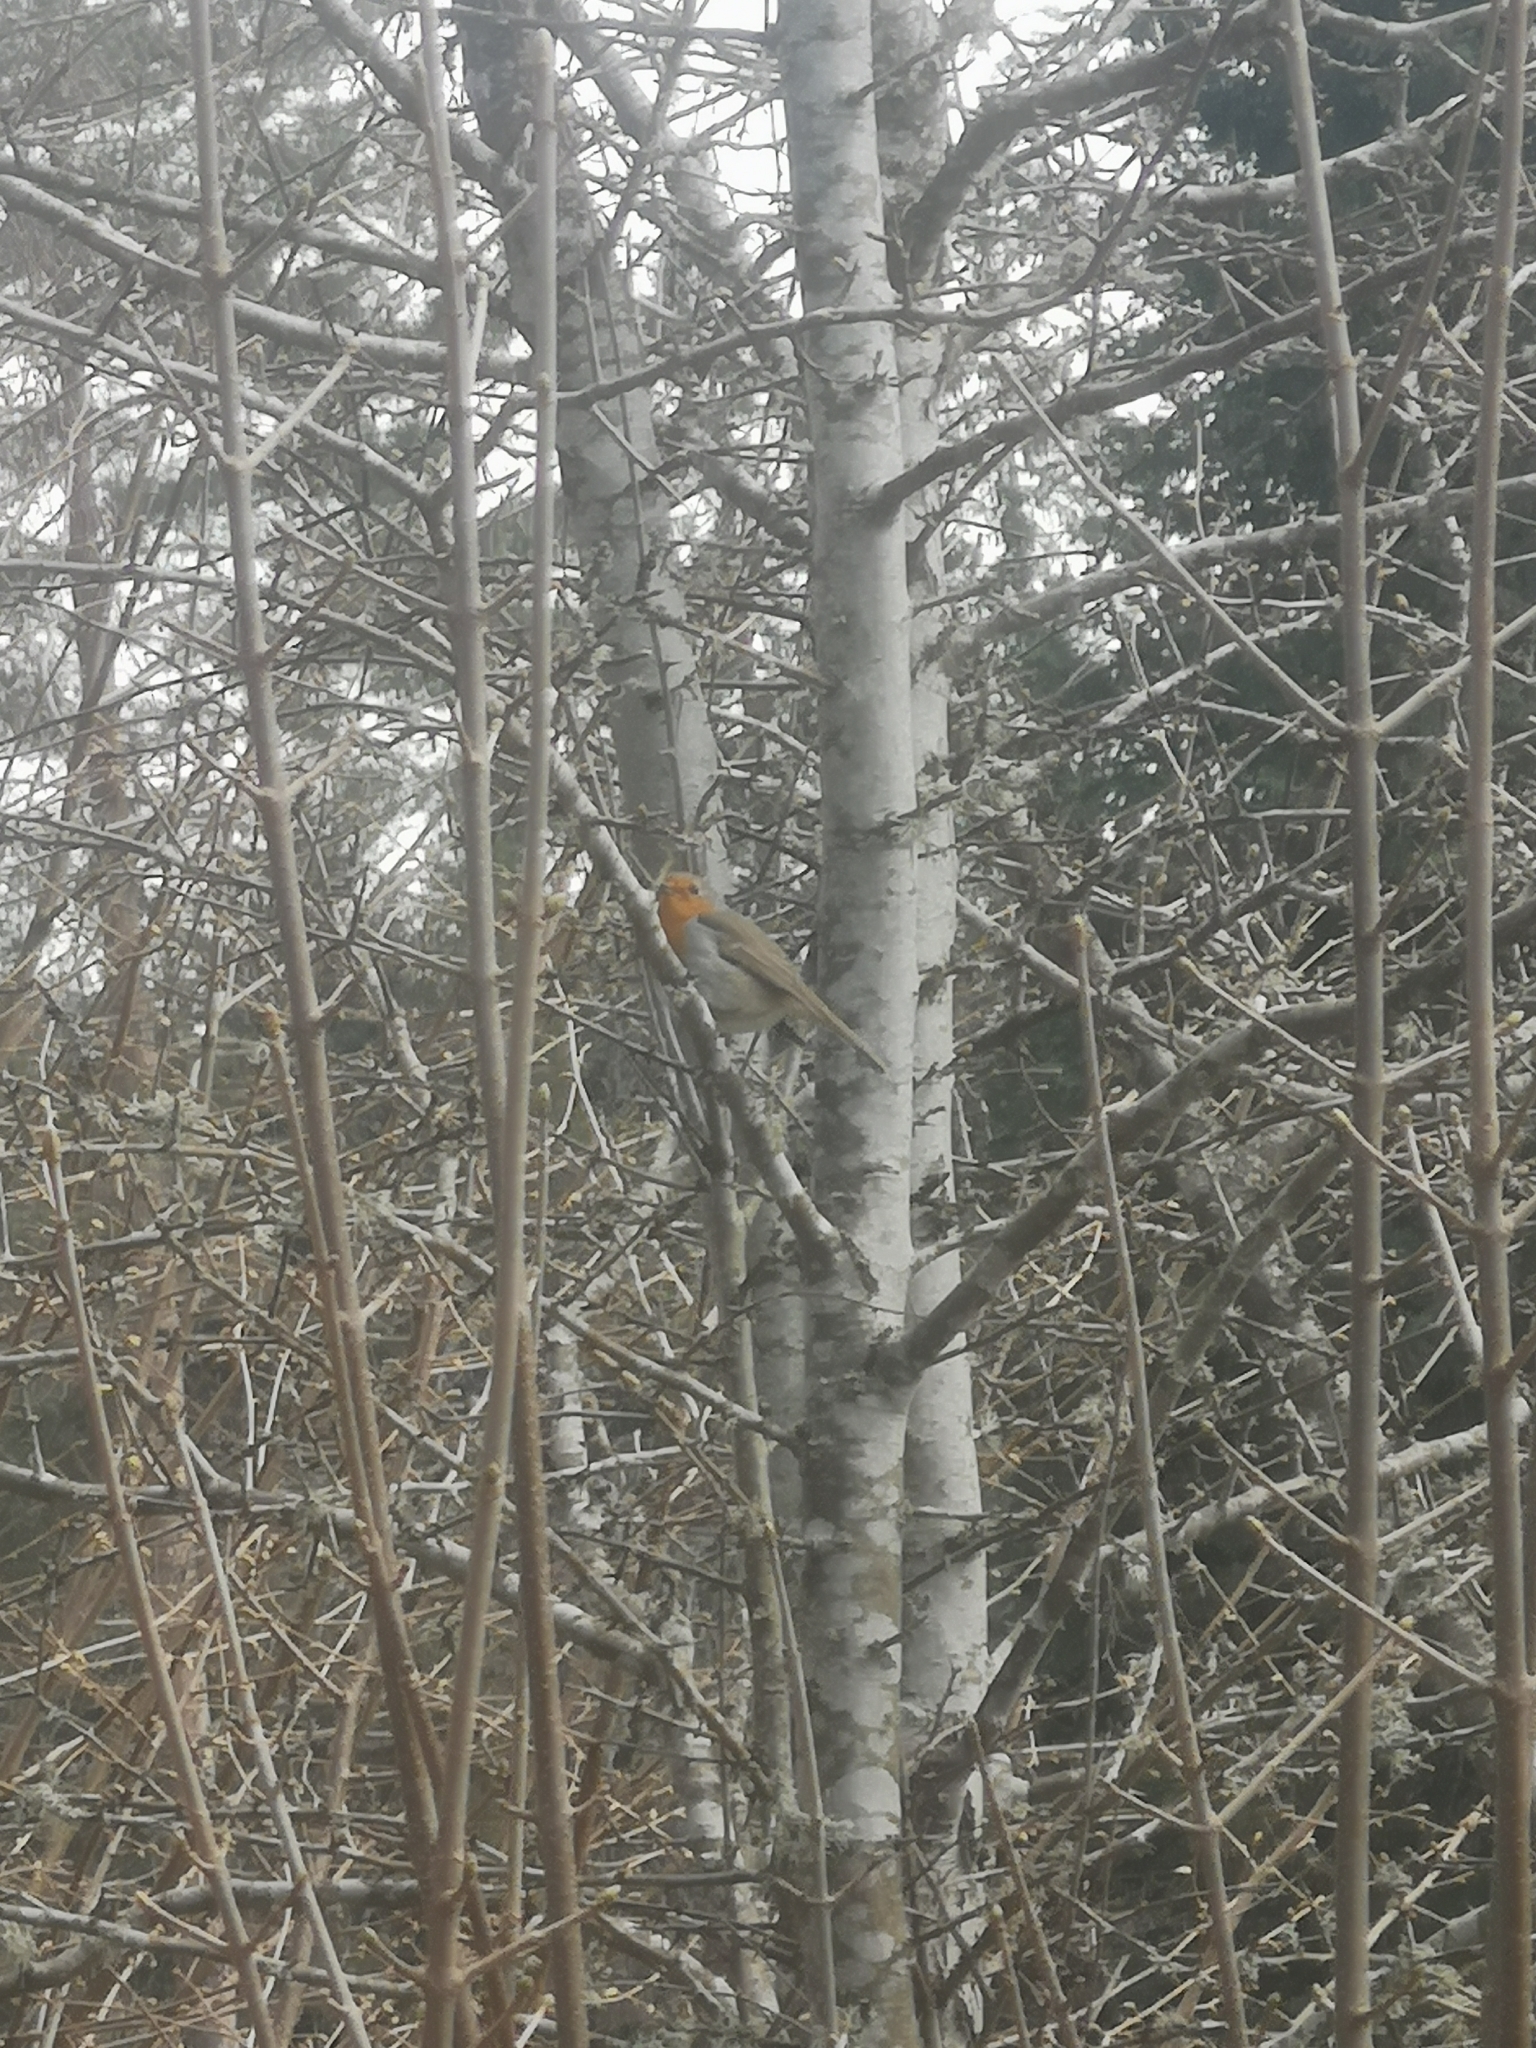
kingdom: Animalia
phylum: Chordata
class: Aves
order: Passeriformes
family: Muscicapidae
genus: Erithacus
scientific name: Erithacus rubecula
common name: European robin
